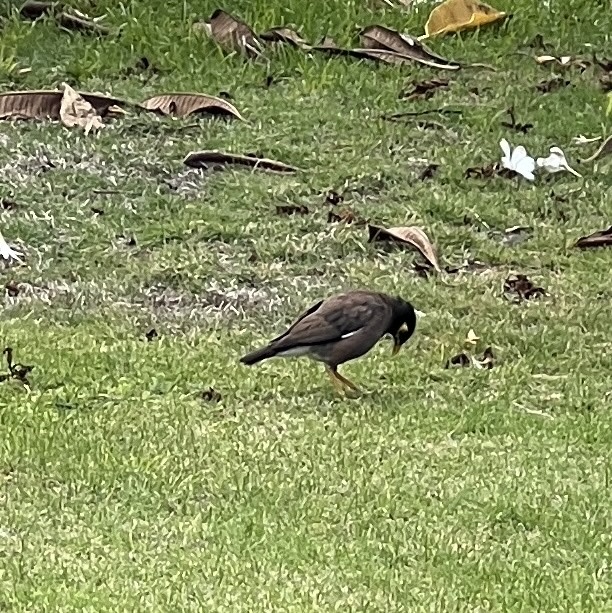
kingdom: Animalia
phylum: Chordata
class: Aves
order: Passeriformes
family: Sturnidae
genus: Acridotheres
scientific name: Acridotheres tristis
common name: Common myna
